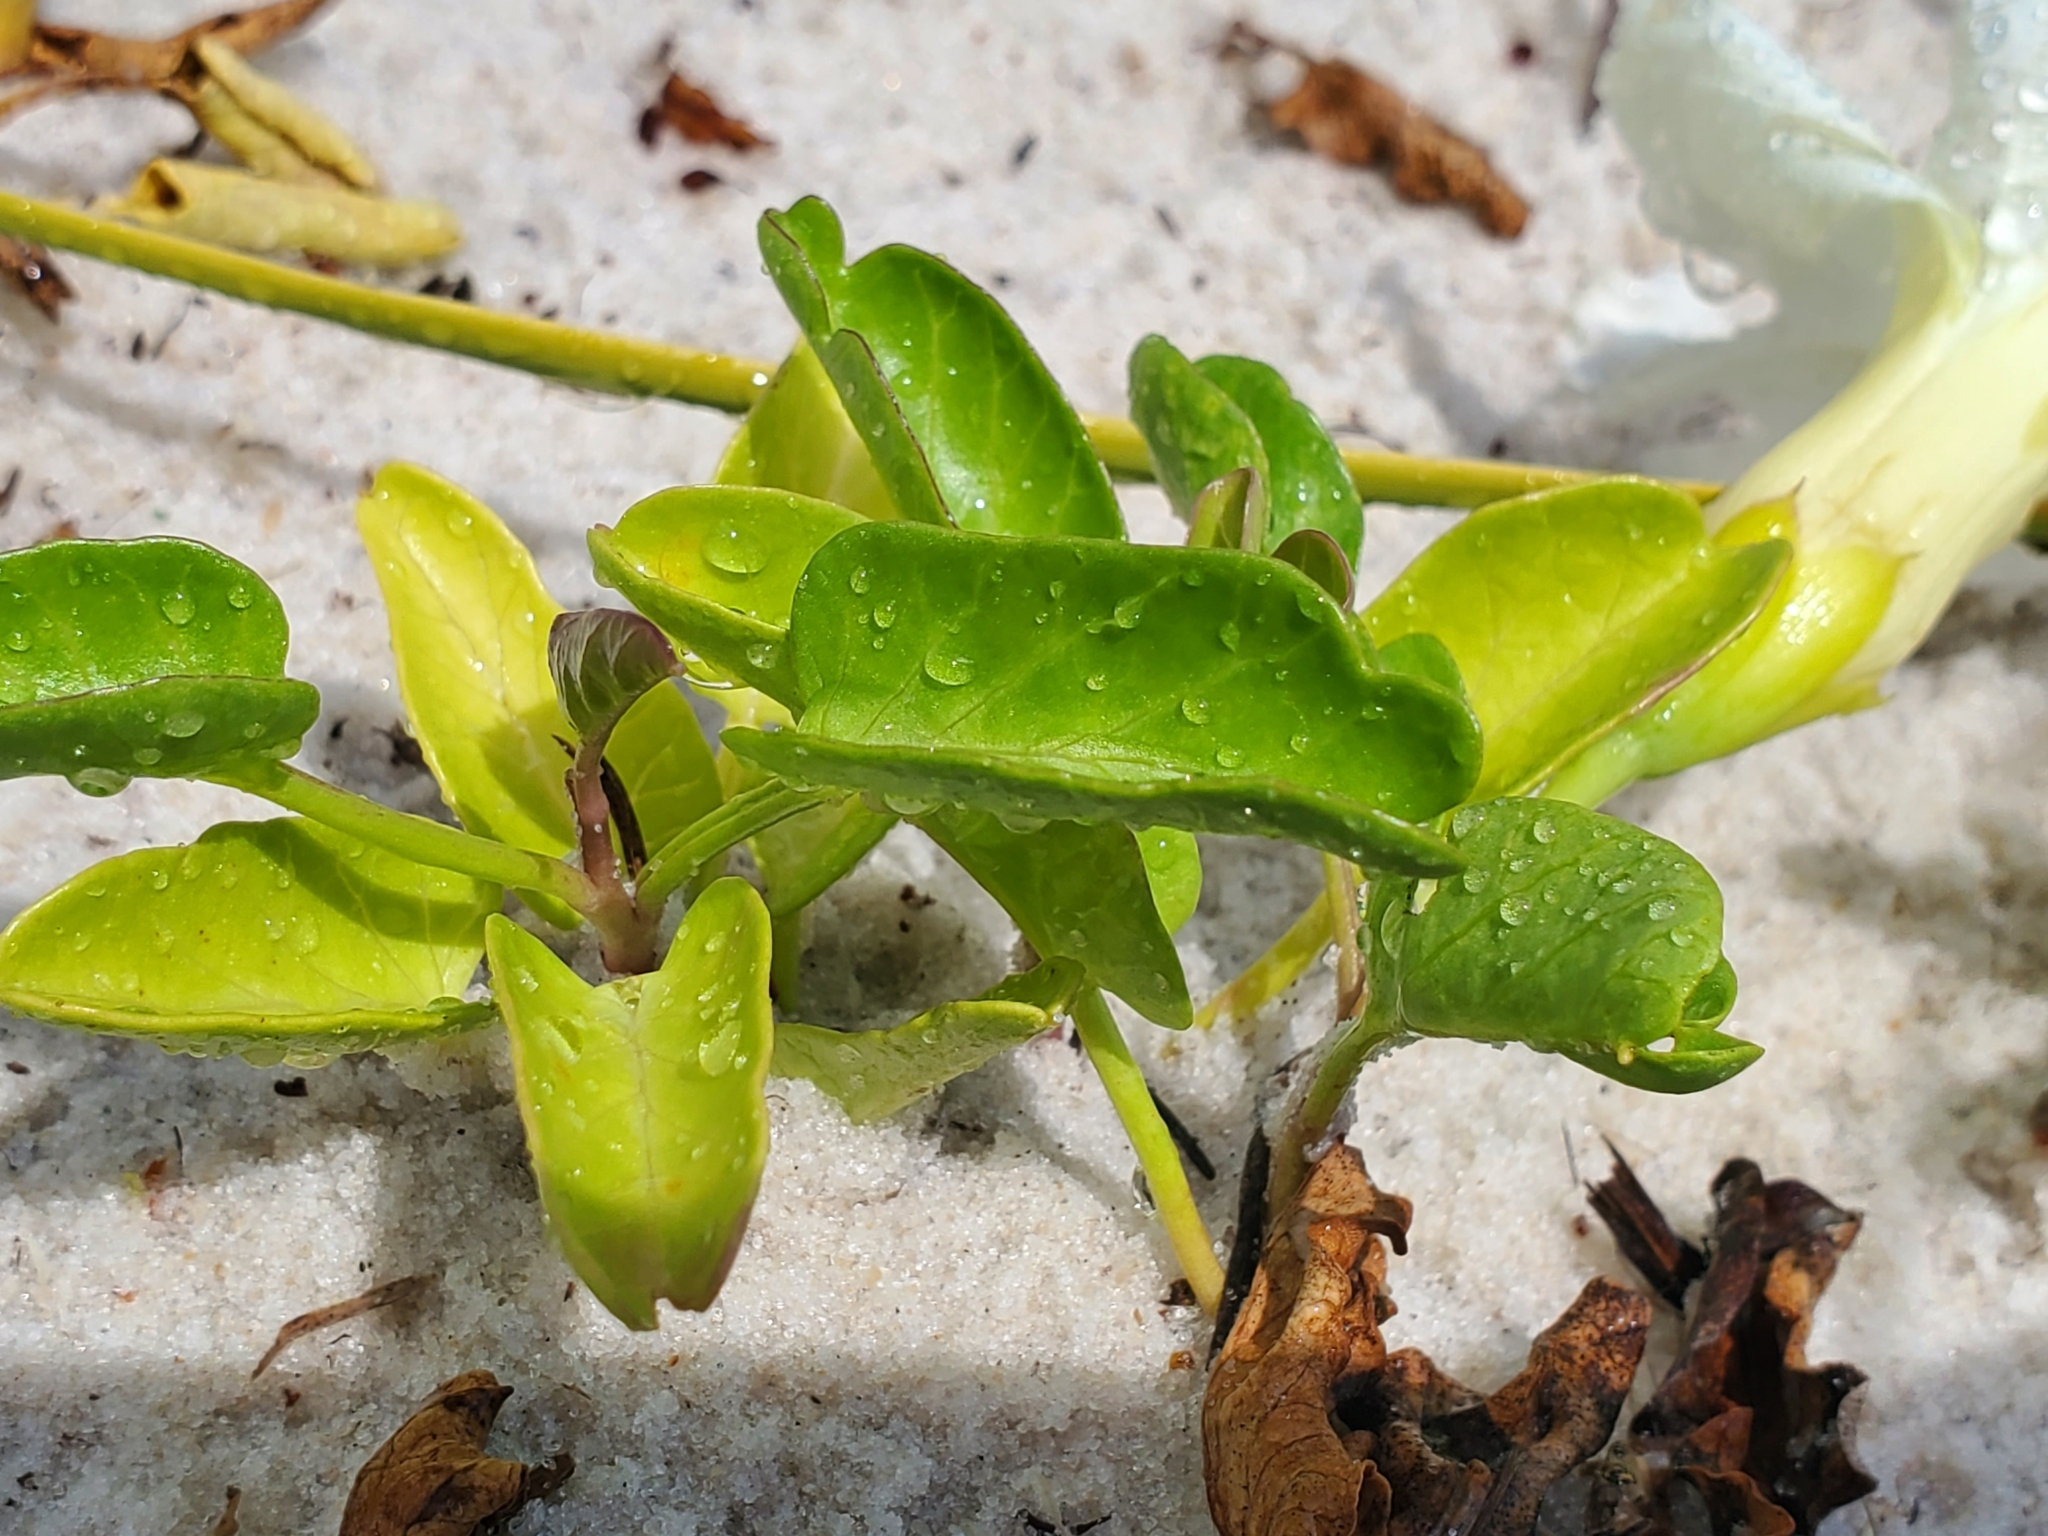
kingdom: Plantae
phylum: Tracheophyta
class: Magnoliopsida
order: Solanales
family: Convolvulaceae
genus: Ipomoea
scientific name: Ipomoea imperati
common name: Fiddle-leaf morning-glory
